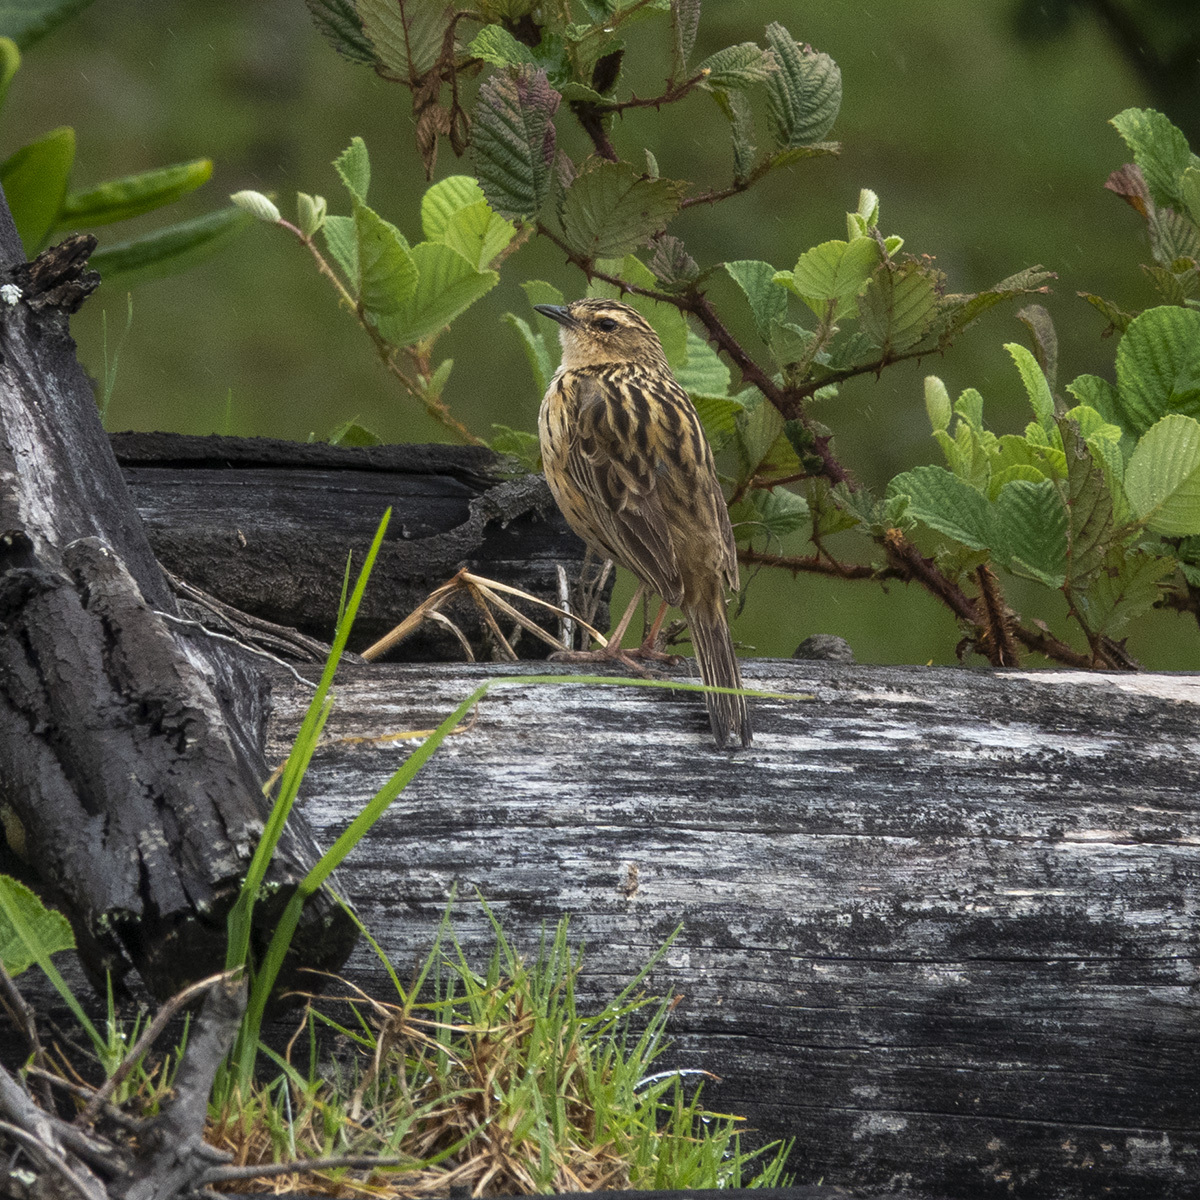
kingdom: Animalia
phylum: Chordata
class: Aves
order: Passeriformes
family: Motacillidae
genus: Anthus
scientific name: Anthus nilghiriensis
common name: Nilgiri pipit
